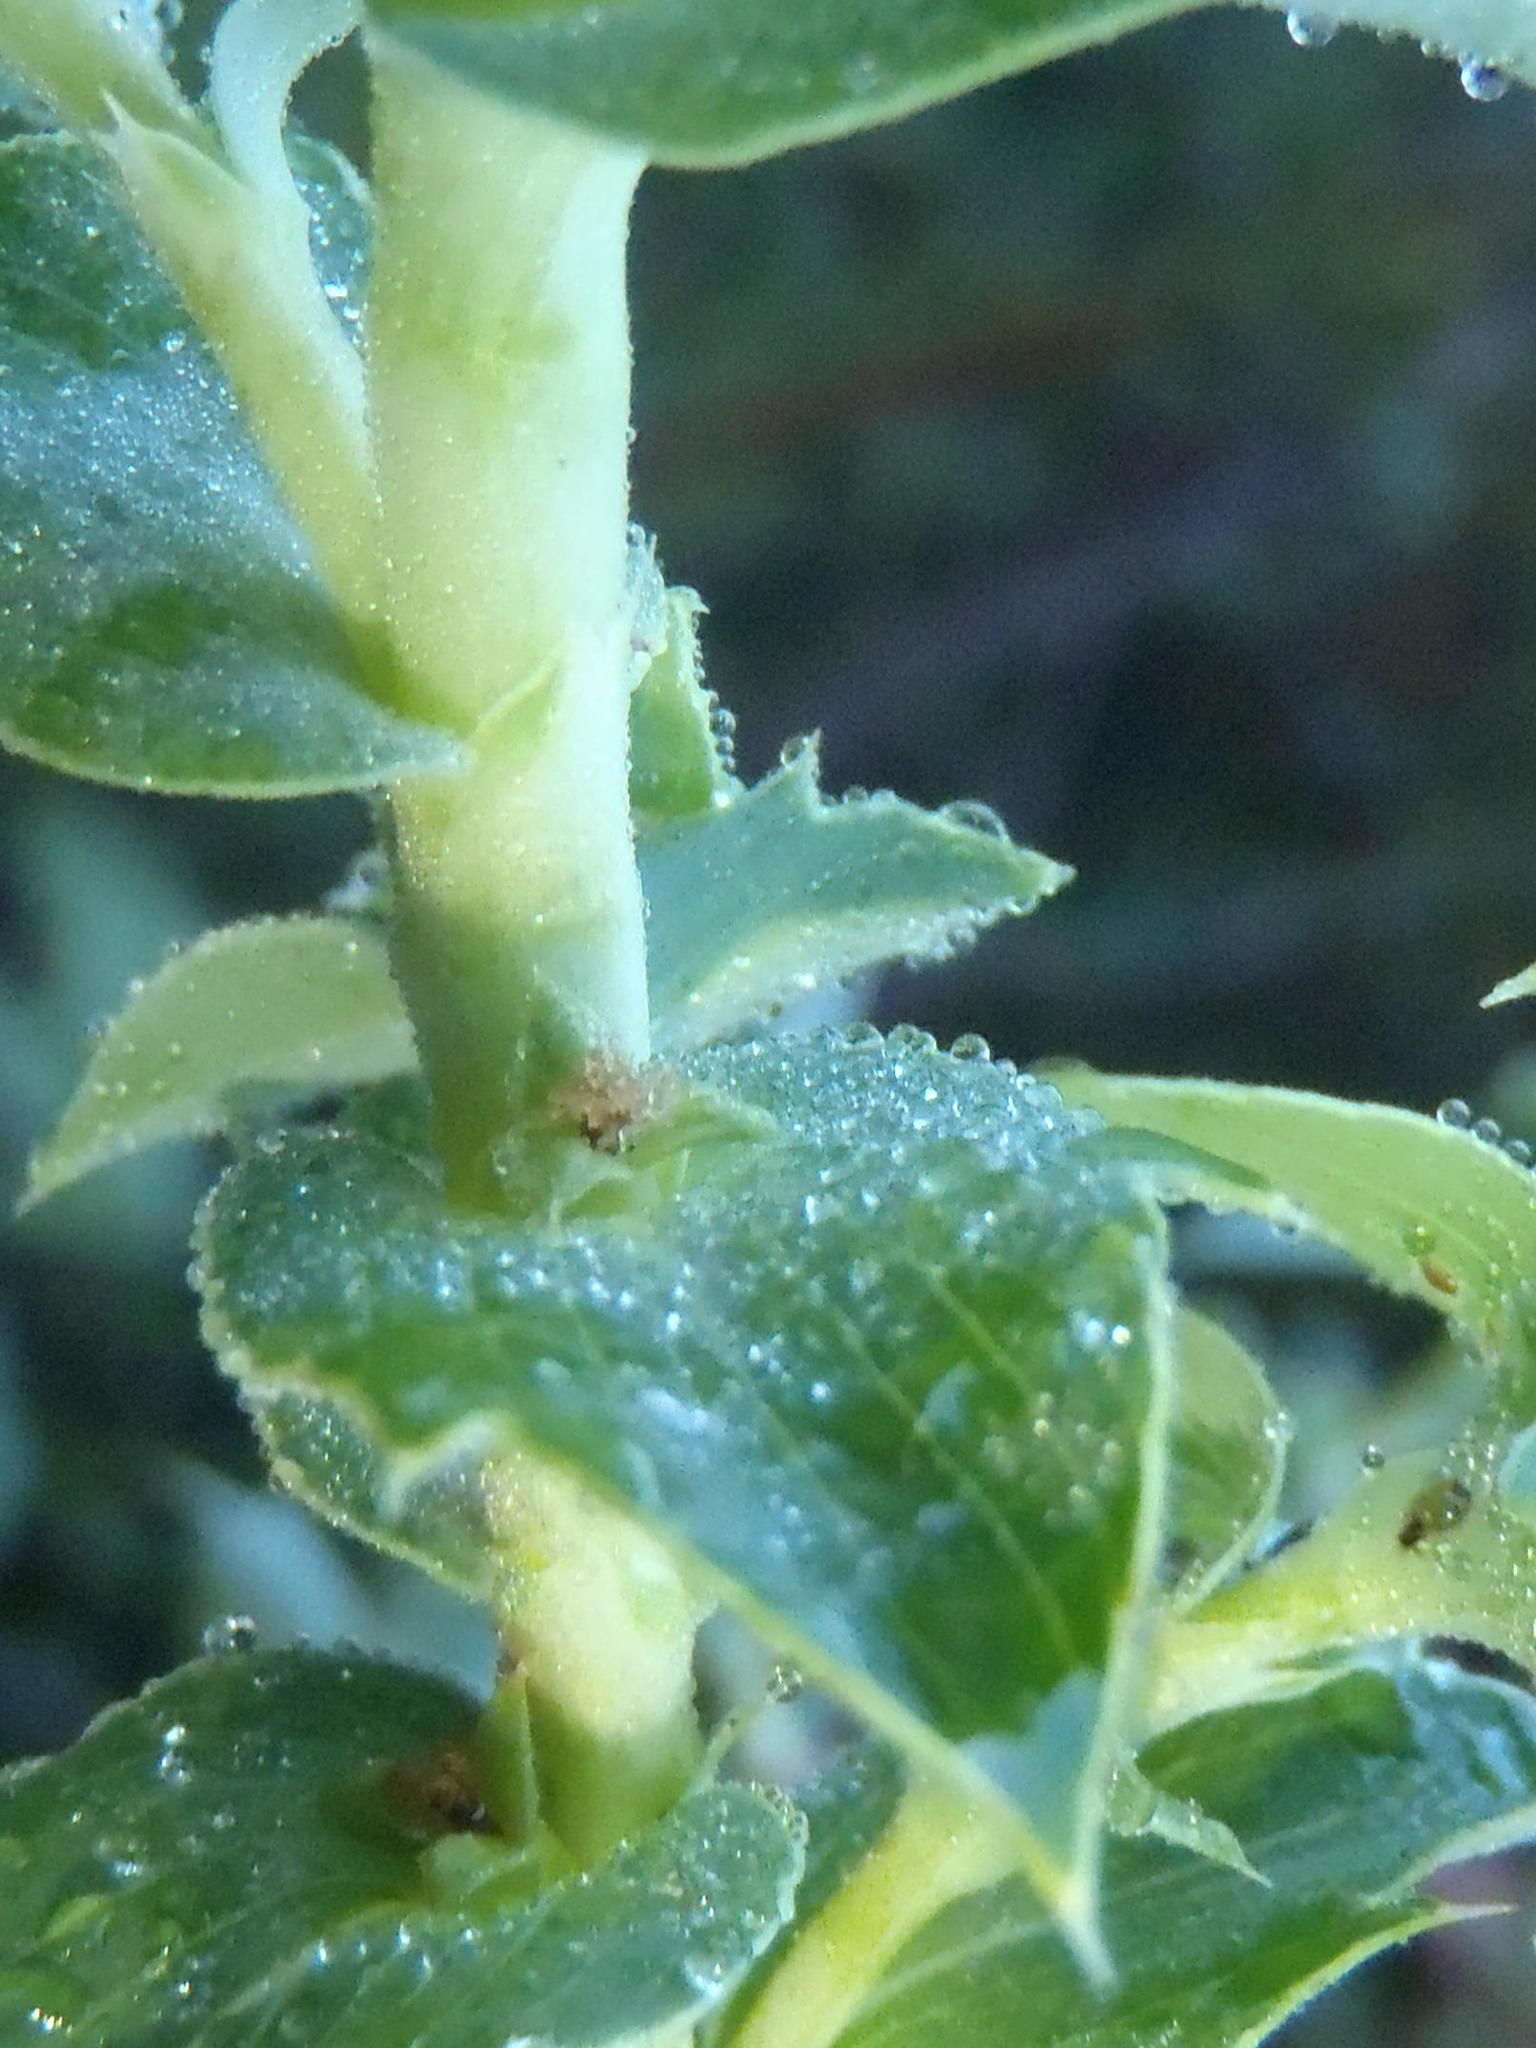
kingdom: Plantae
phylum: Tracheophyta
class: Magnoliopsida
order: Rosales
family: Rosaceae
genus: Cliffortia
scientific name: Cliffortia ilicifolia
